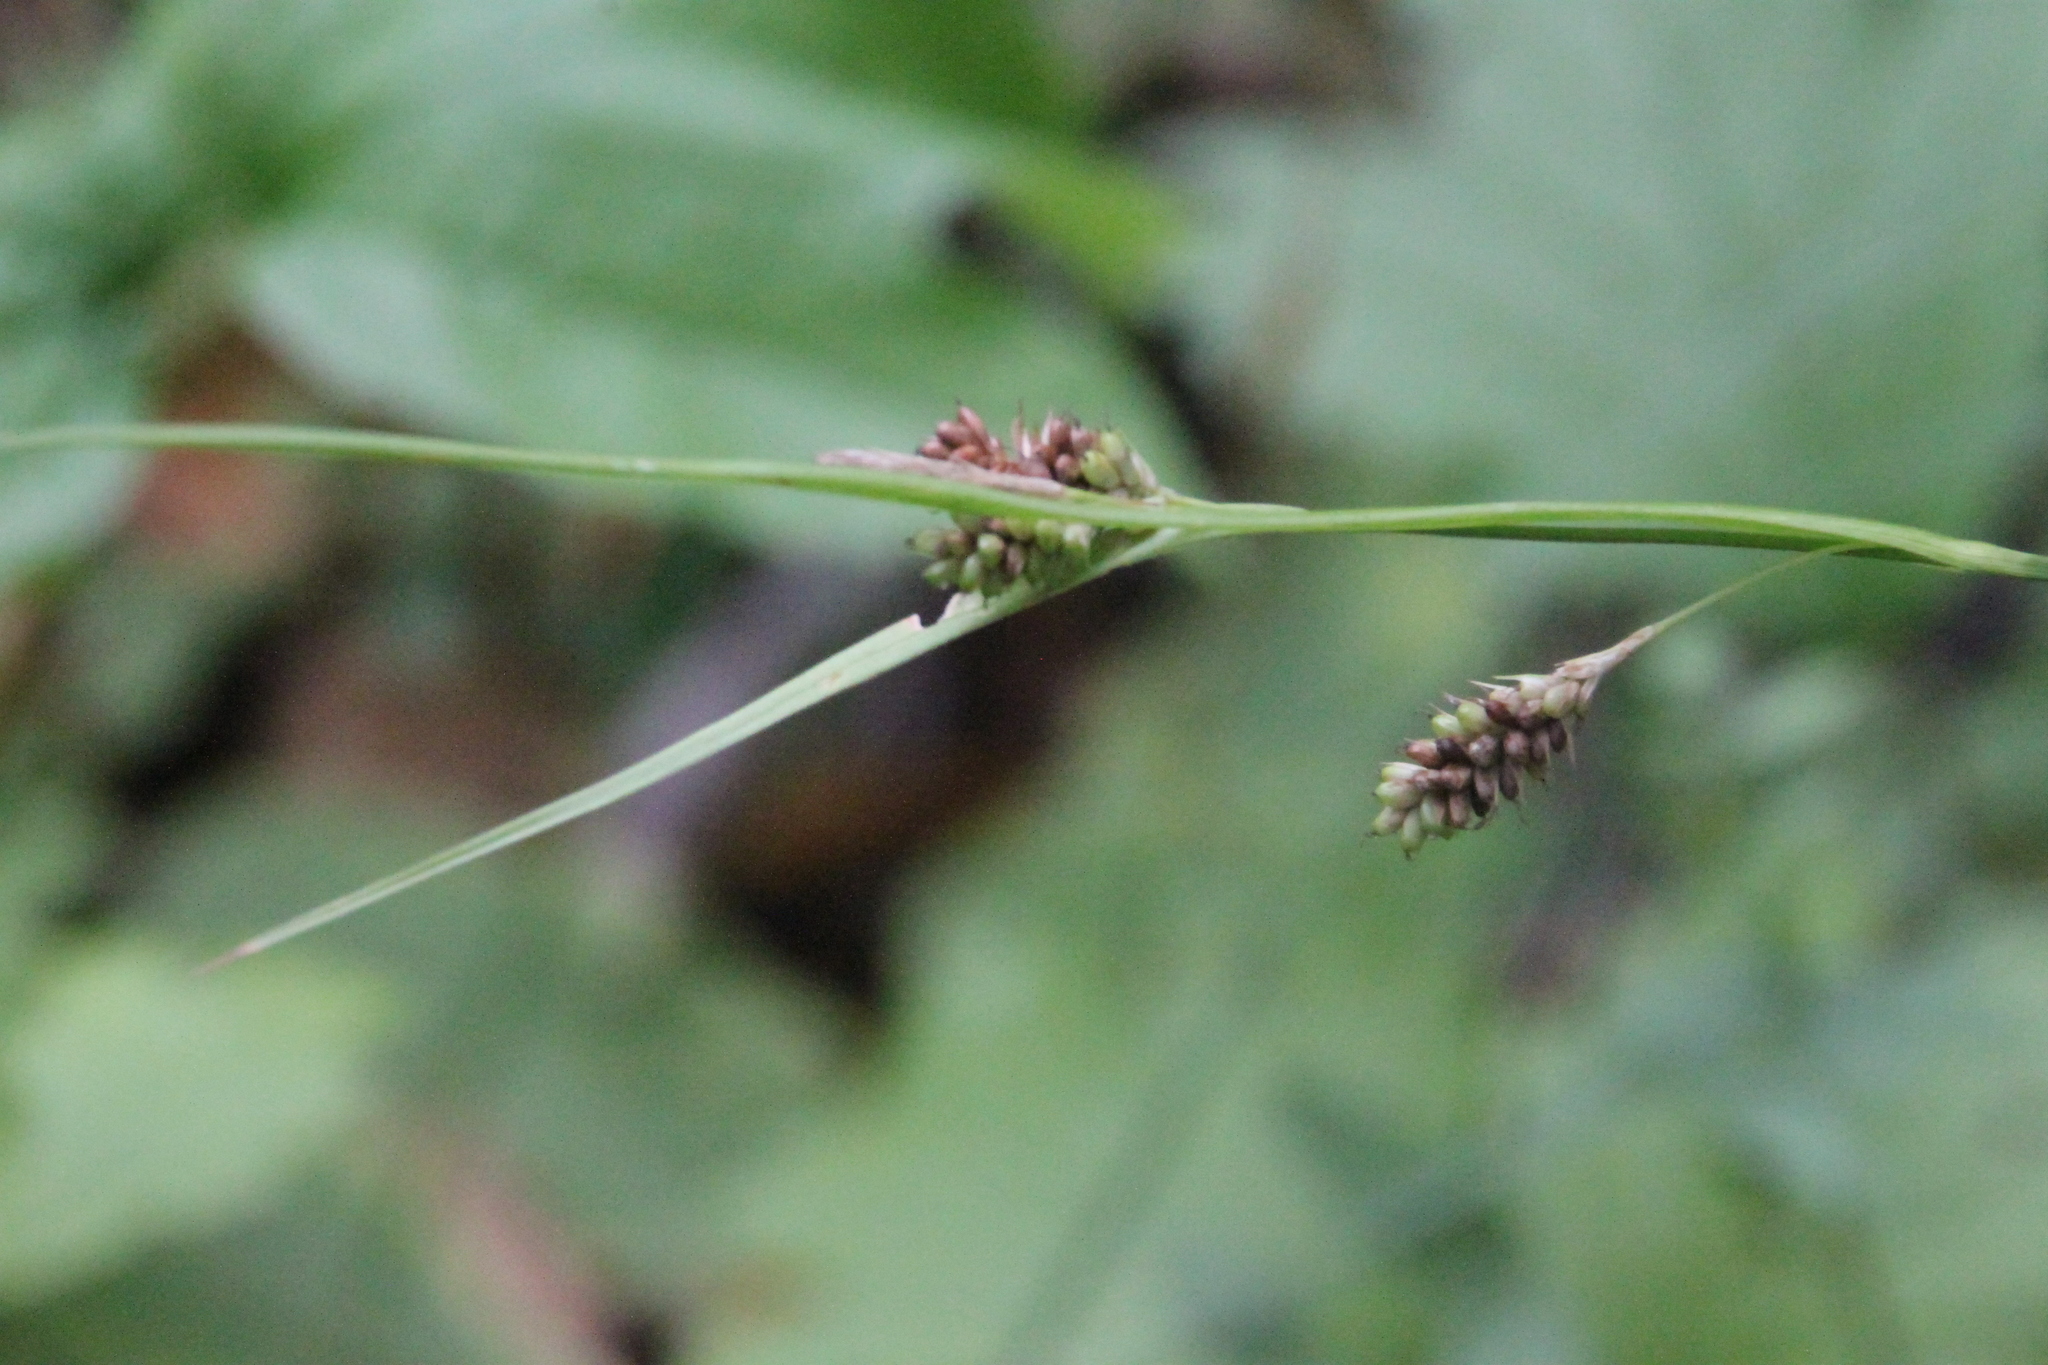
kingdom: Plantae
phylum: Tracheophyta
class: Liliopsida
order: Poales
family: Cyperaceae
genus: Carex
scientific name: Carex pallescens
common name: Pale sedge
